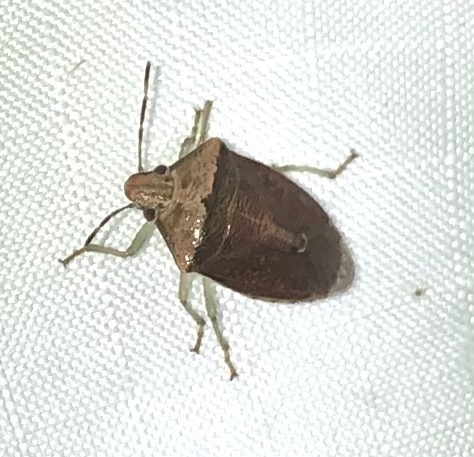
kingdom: Animalia
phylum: Arthropoda
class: Insecta
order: Hemiptera
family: Pentatomidae
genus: Banasa
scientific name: Banasa calva
